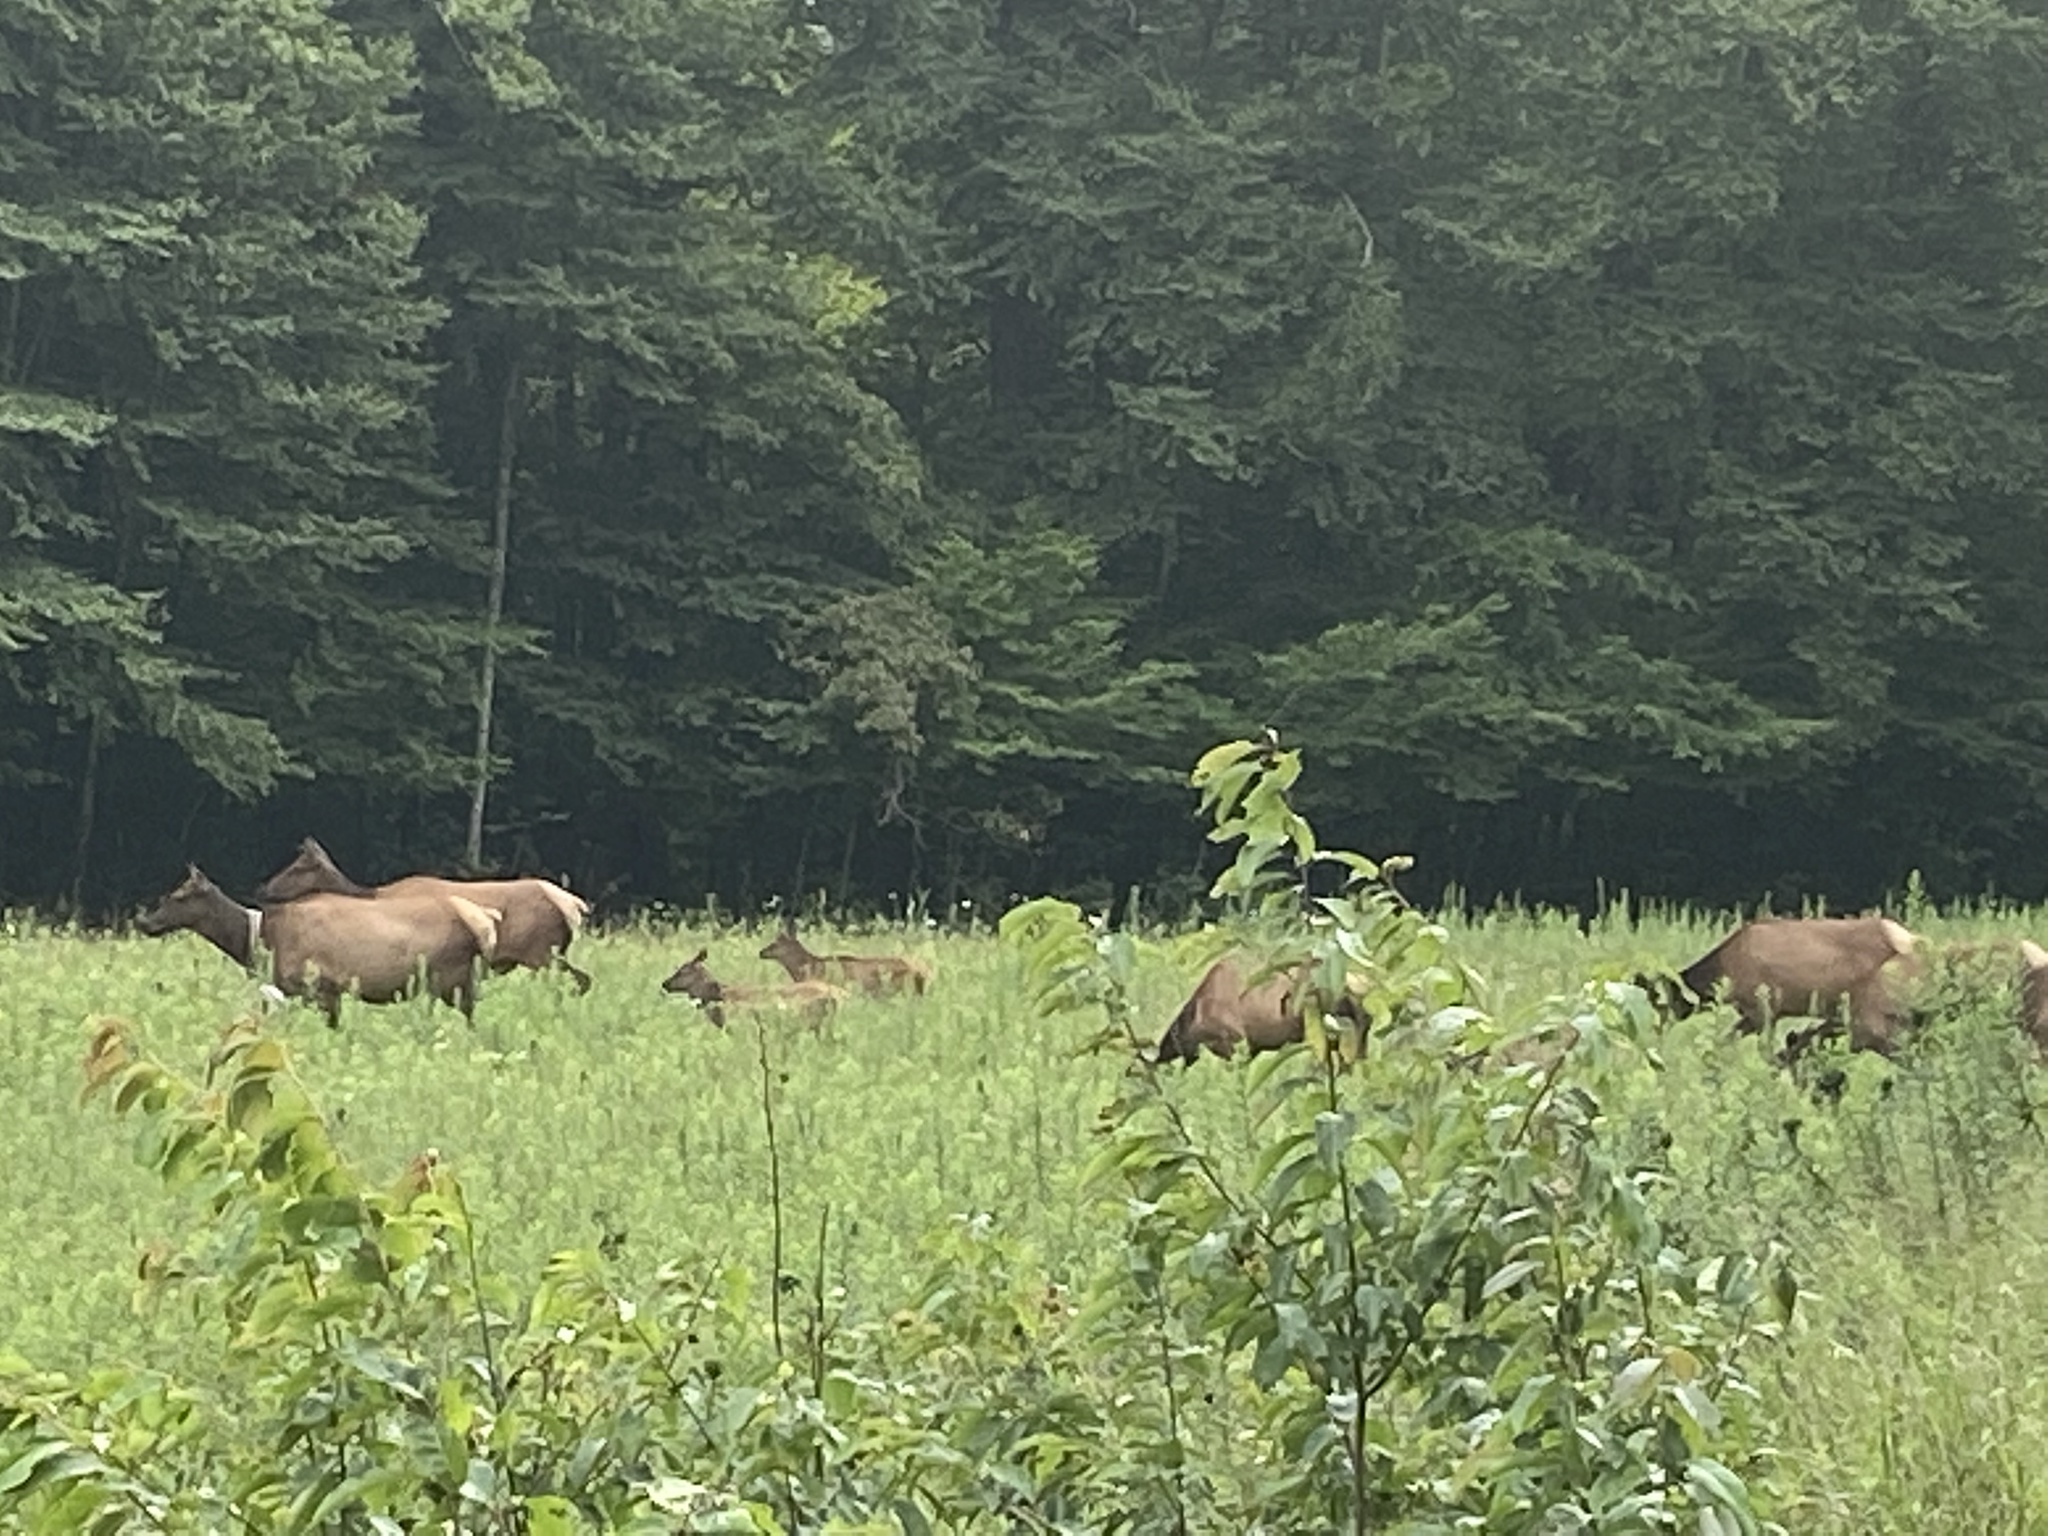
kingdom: Animalia
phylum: Chordata
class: Mammalia
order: Artiodactyla
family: Cervidae
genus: Cervus
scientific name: Cervus elaphus
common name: Red deer
